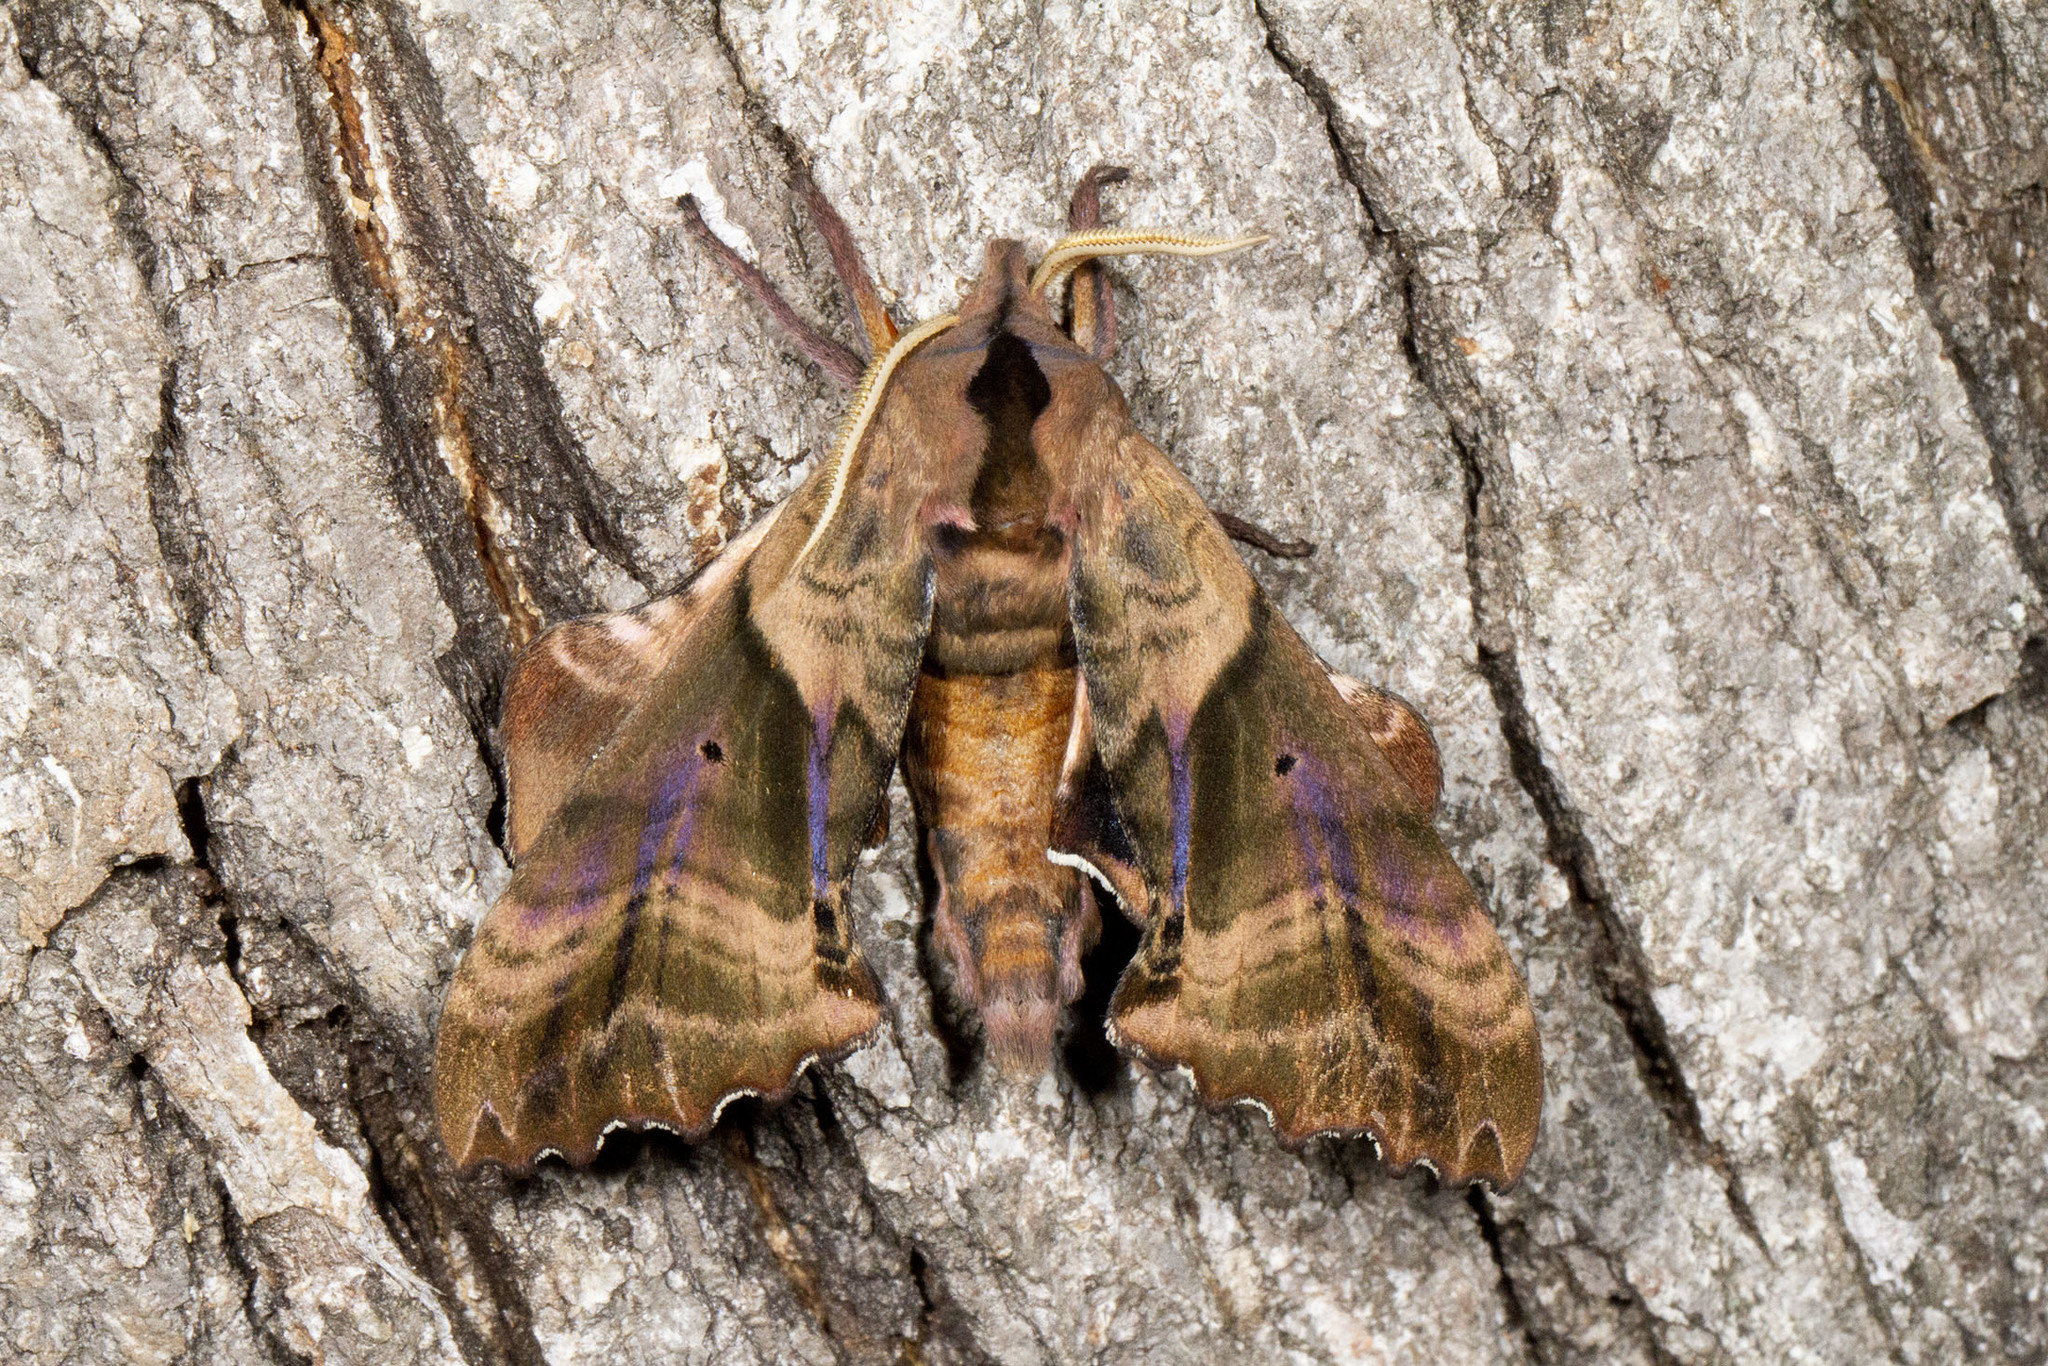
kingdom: Animalia
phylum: Arthropoda
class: Insecta
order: Lepidoptera
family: Sphingidae
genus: Paonias
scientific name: Paonias excaecata
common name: Blind-eyed sphinx
